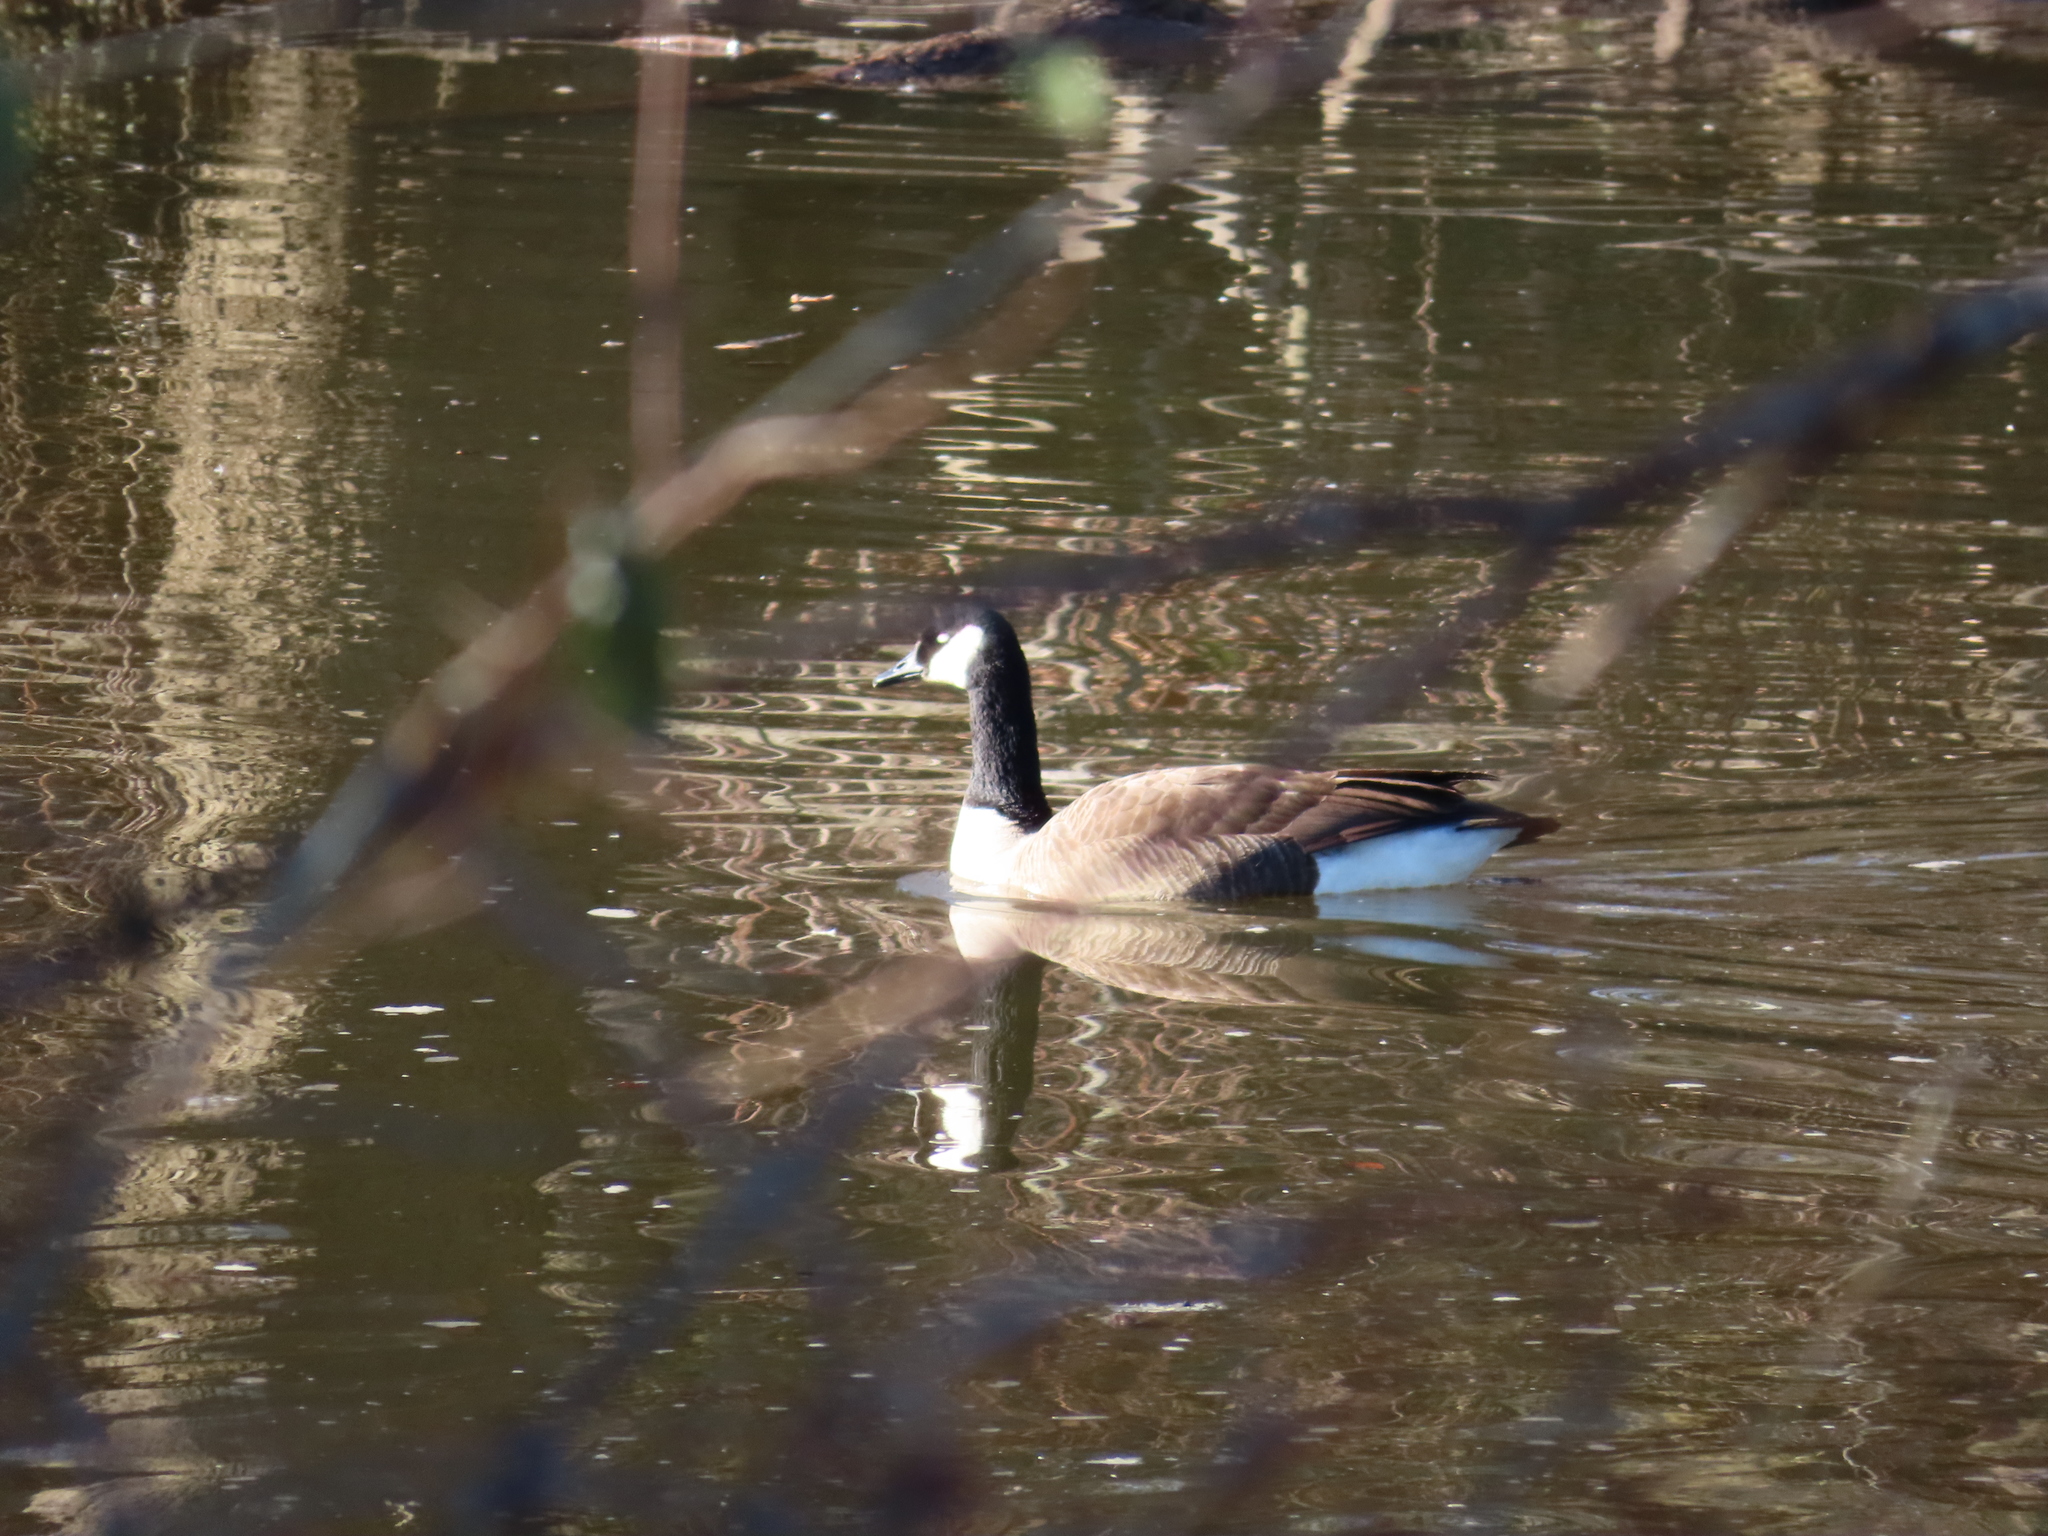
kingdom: Animalia
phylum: Chordata
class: Aves
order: Anseriformes
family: Anatidae
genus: Branta
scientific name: Branta canadensis
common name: Canada goose
